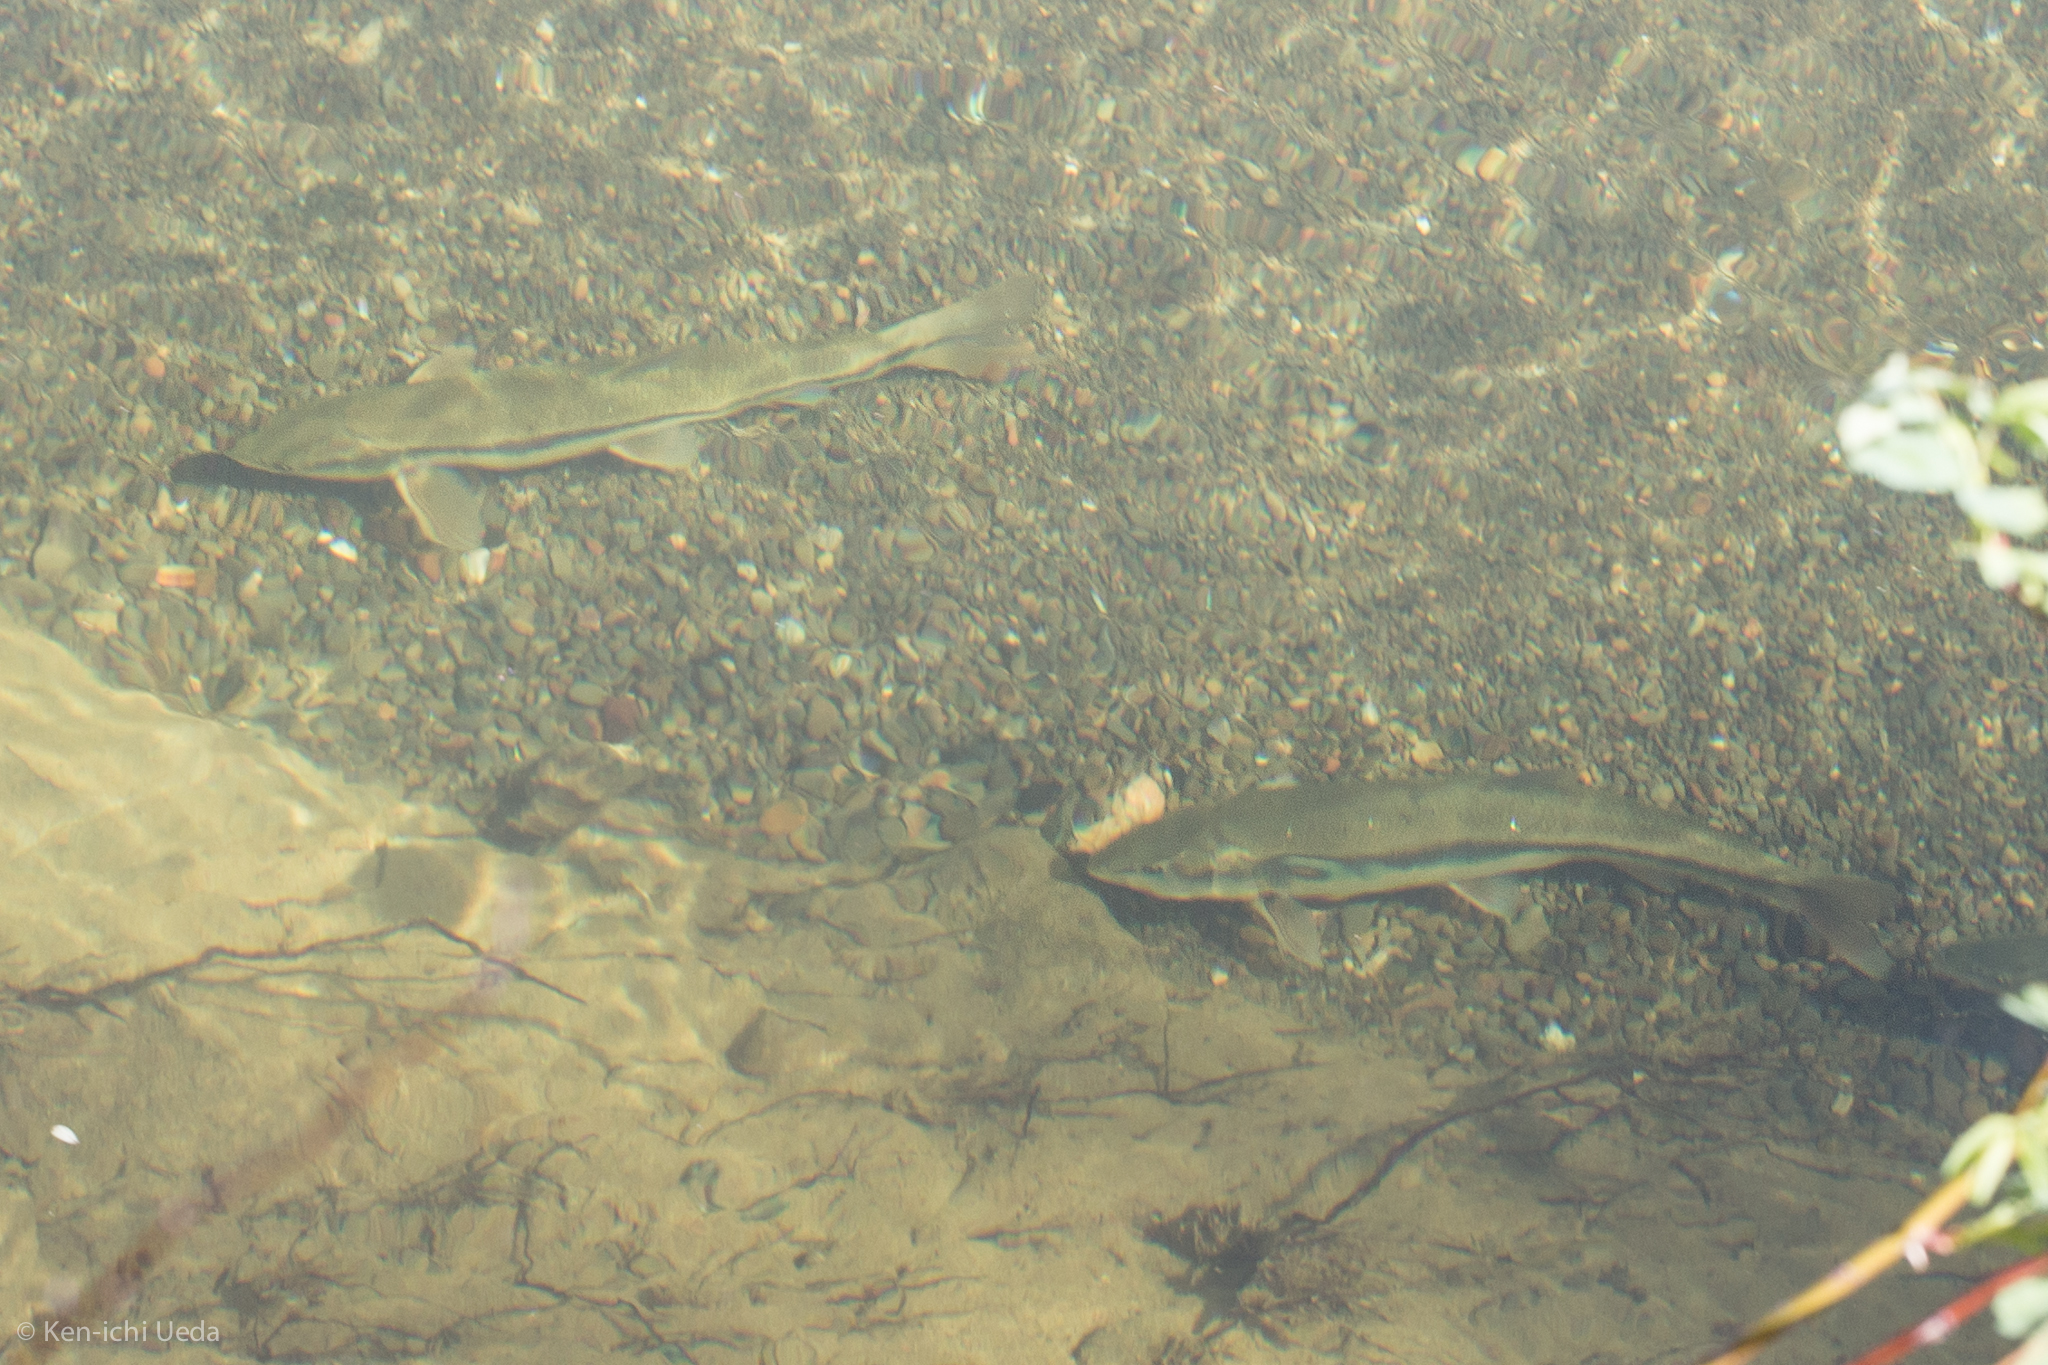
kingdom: Animalia
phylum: Chordata
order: Cypriniformes
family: Cyprinidae
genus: Ptychocheilus
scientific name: Ptychocheilus grandis
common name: Sacramento pikeminnow
